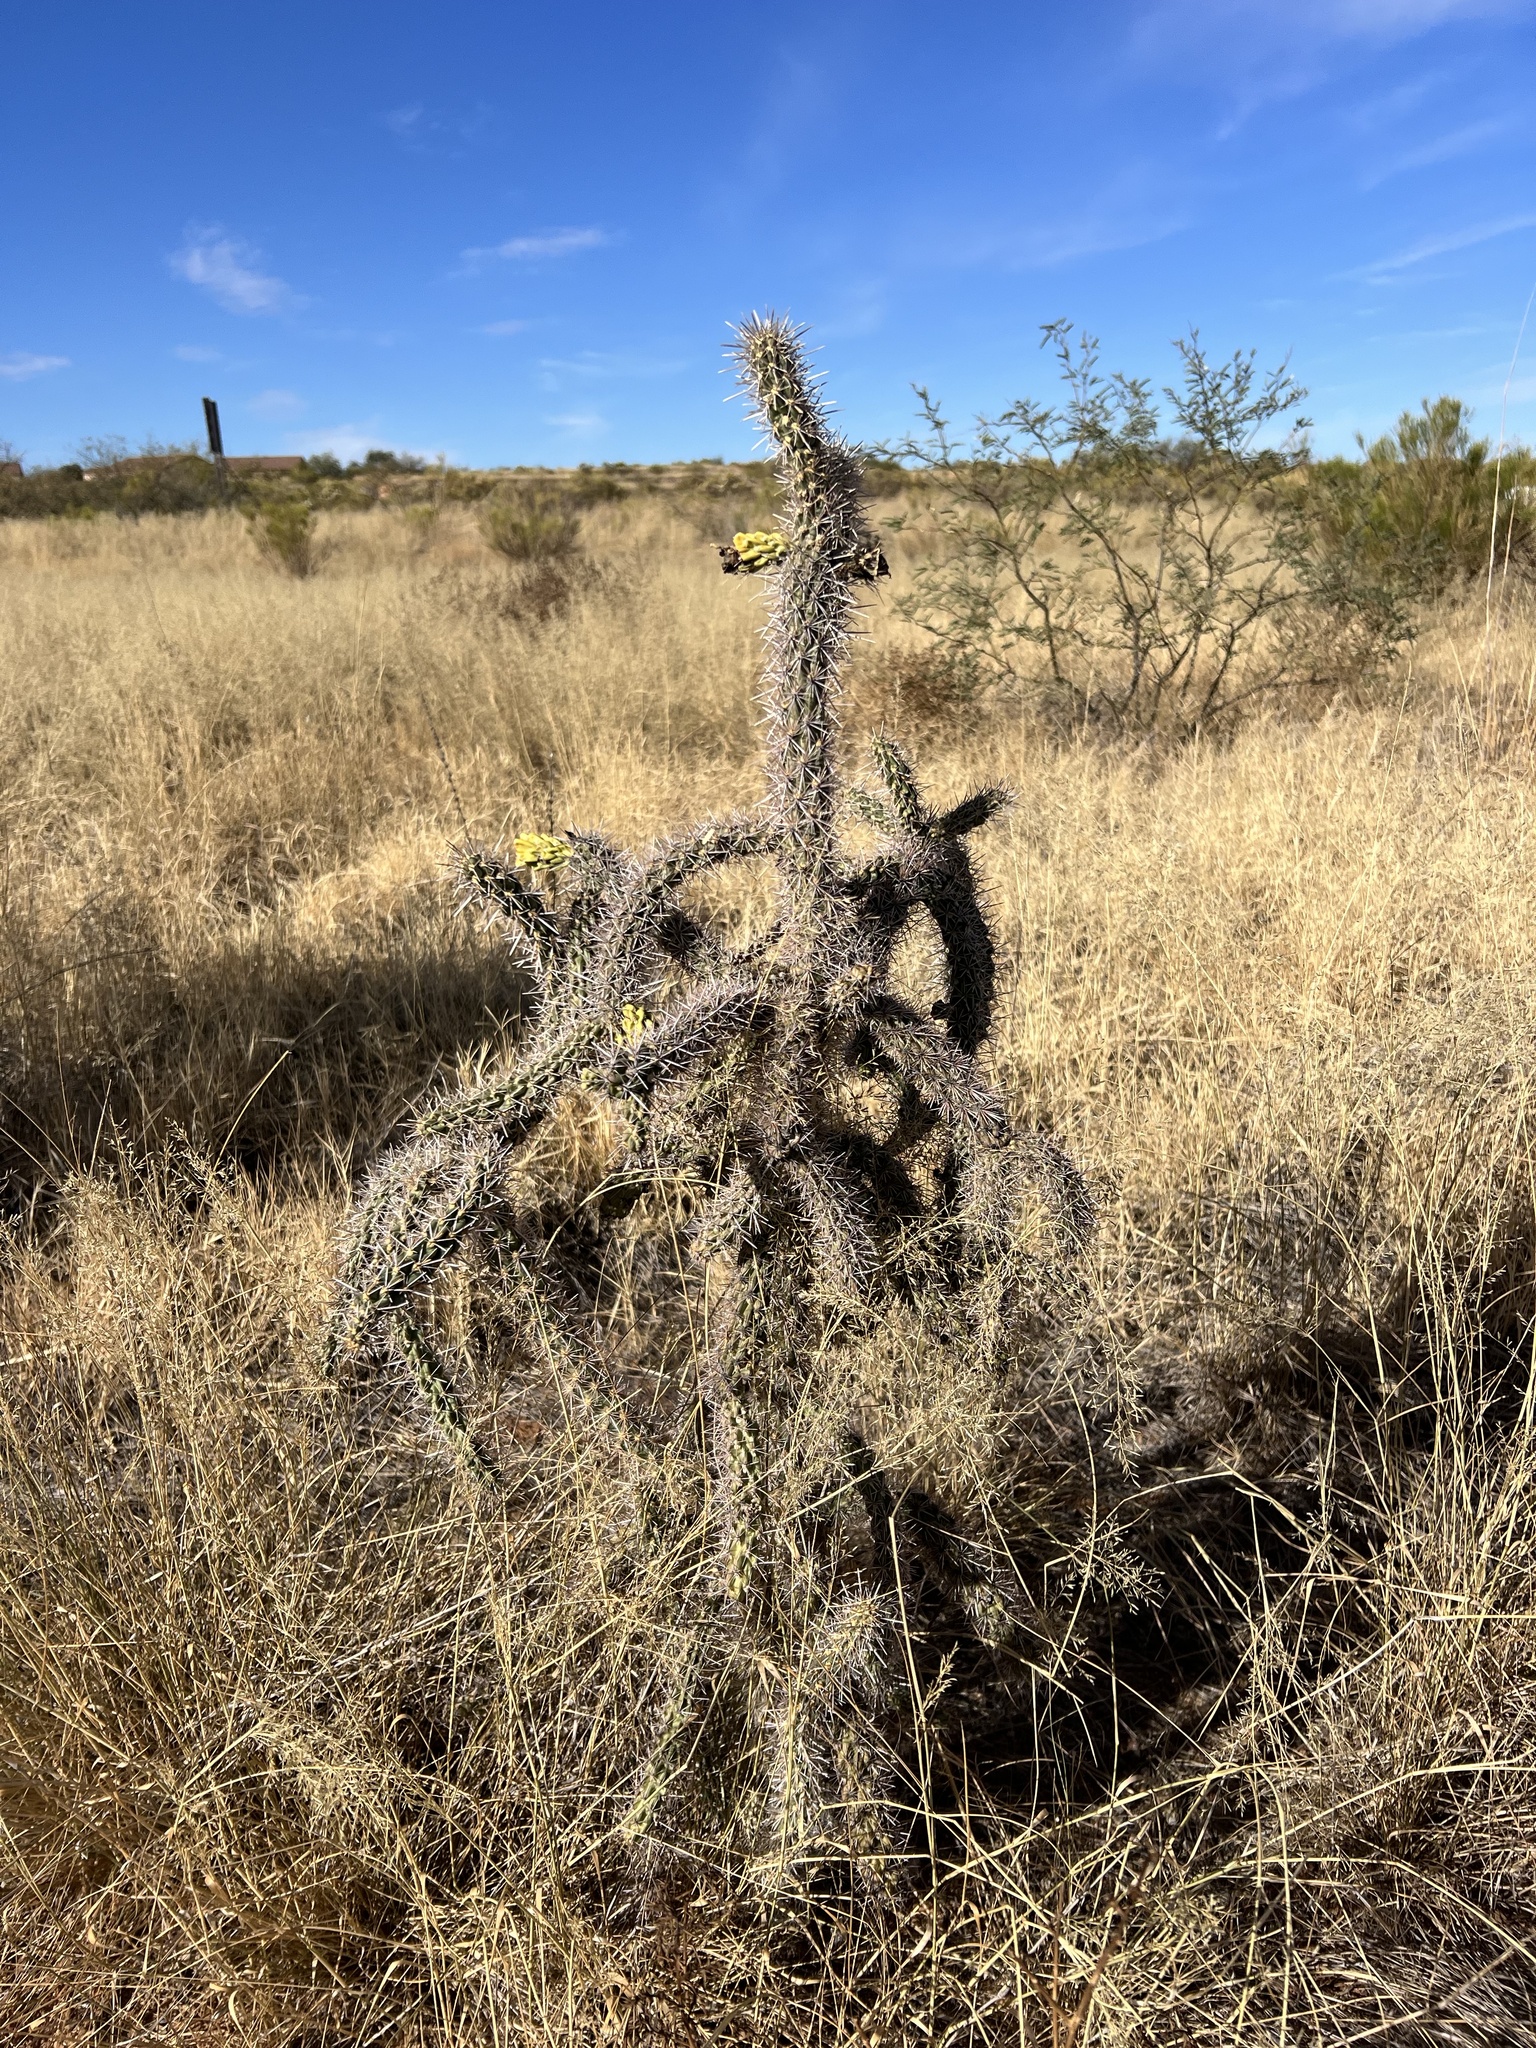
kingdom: Plantae
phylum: Tracheophyta
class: Magnoliopsida
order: Caryophyllales
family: Cactaceae
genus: Cylindropuntia
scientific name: Cylindropuntia imbricata
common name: Candelabrum cactus
